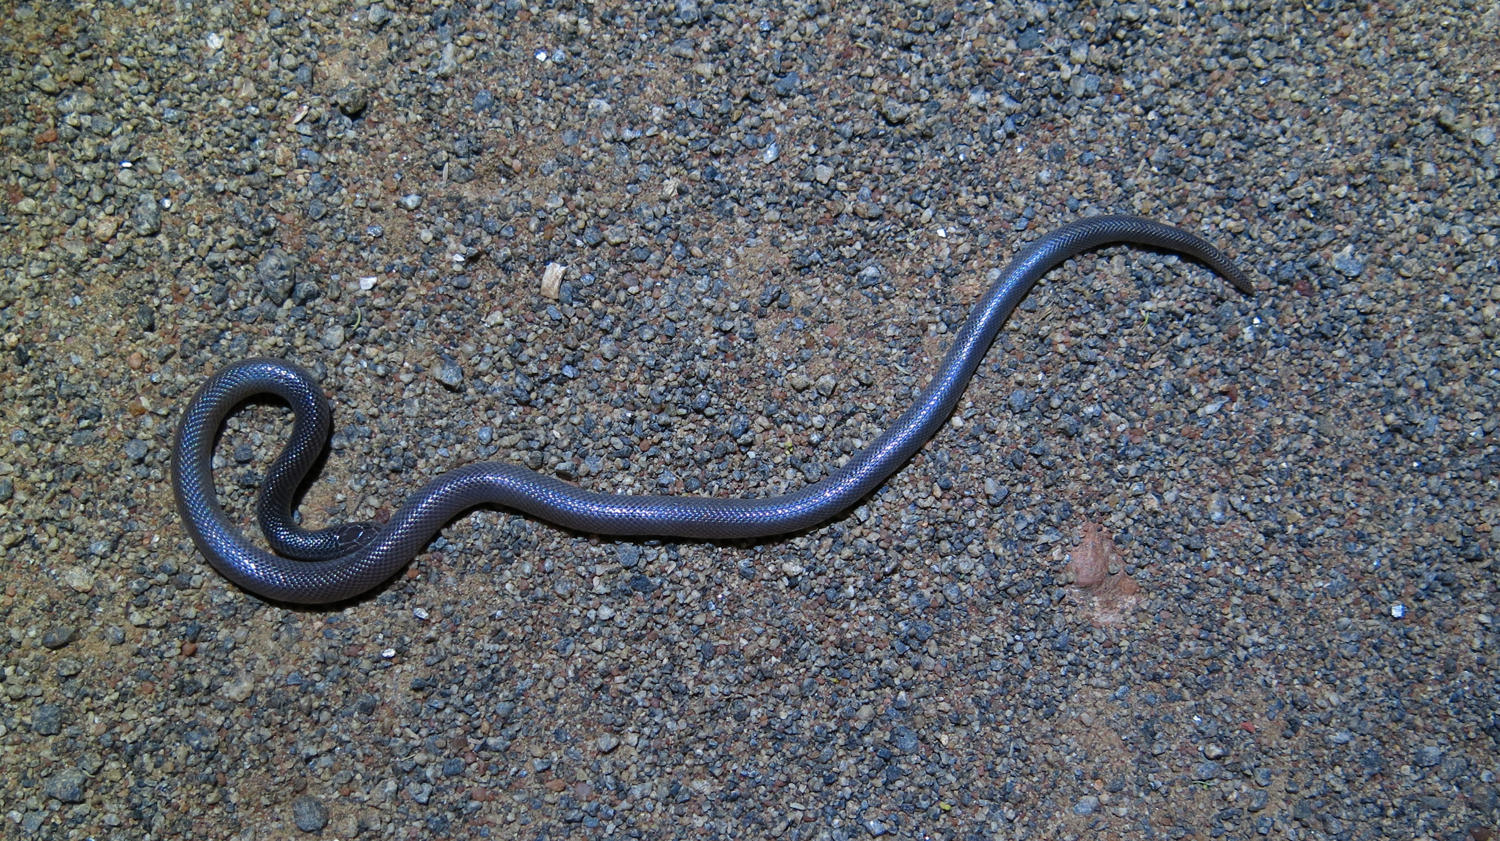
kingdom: Animalia
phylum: Chordata
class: Squamata
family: Atractaspididae
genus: Atractaspis
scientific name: Atractaspis bibronii
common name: Bibron's burrowing asp
